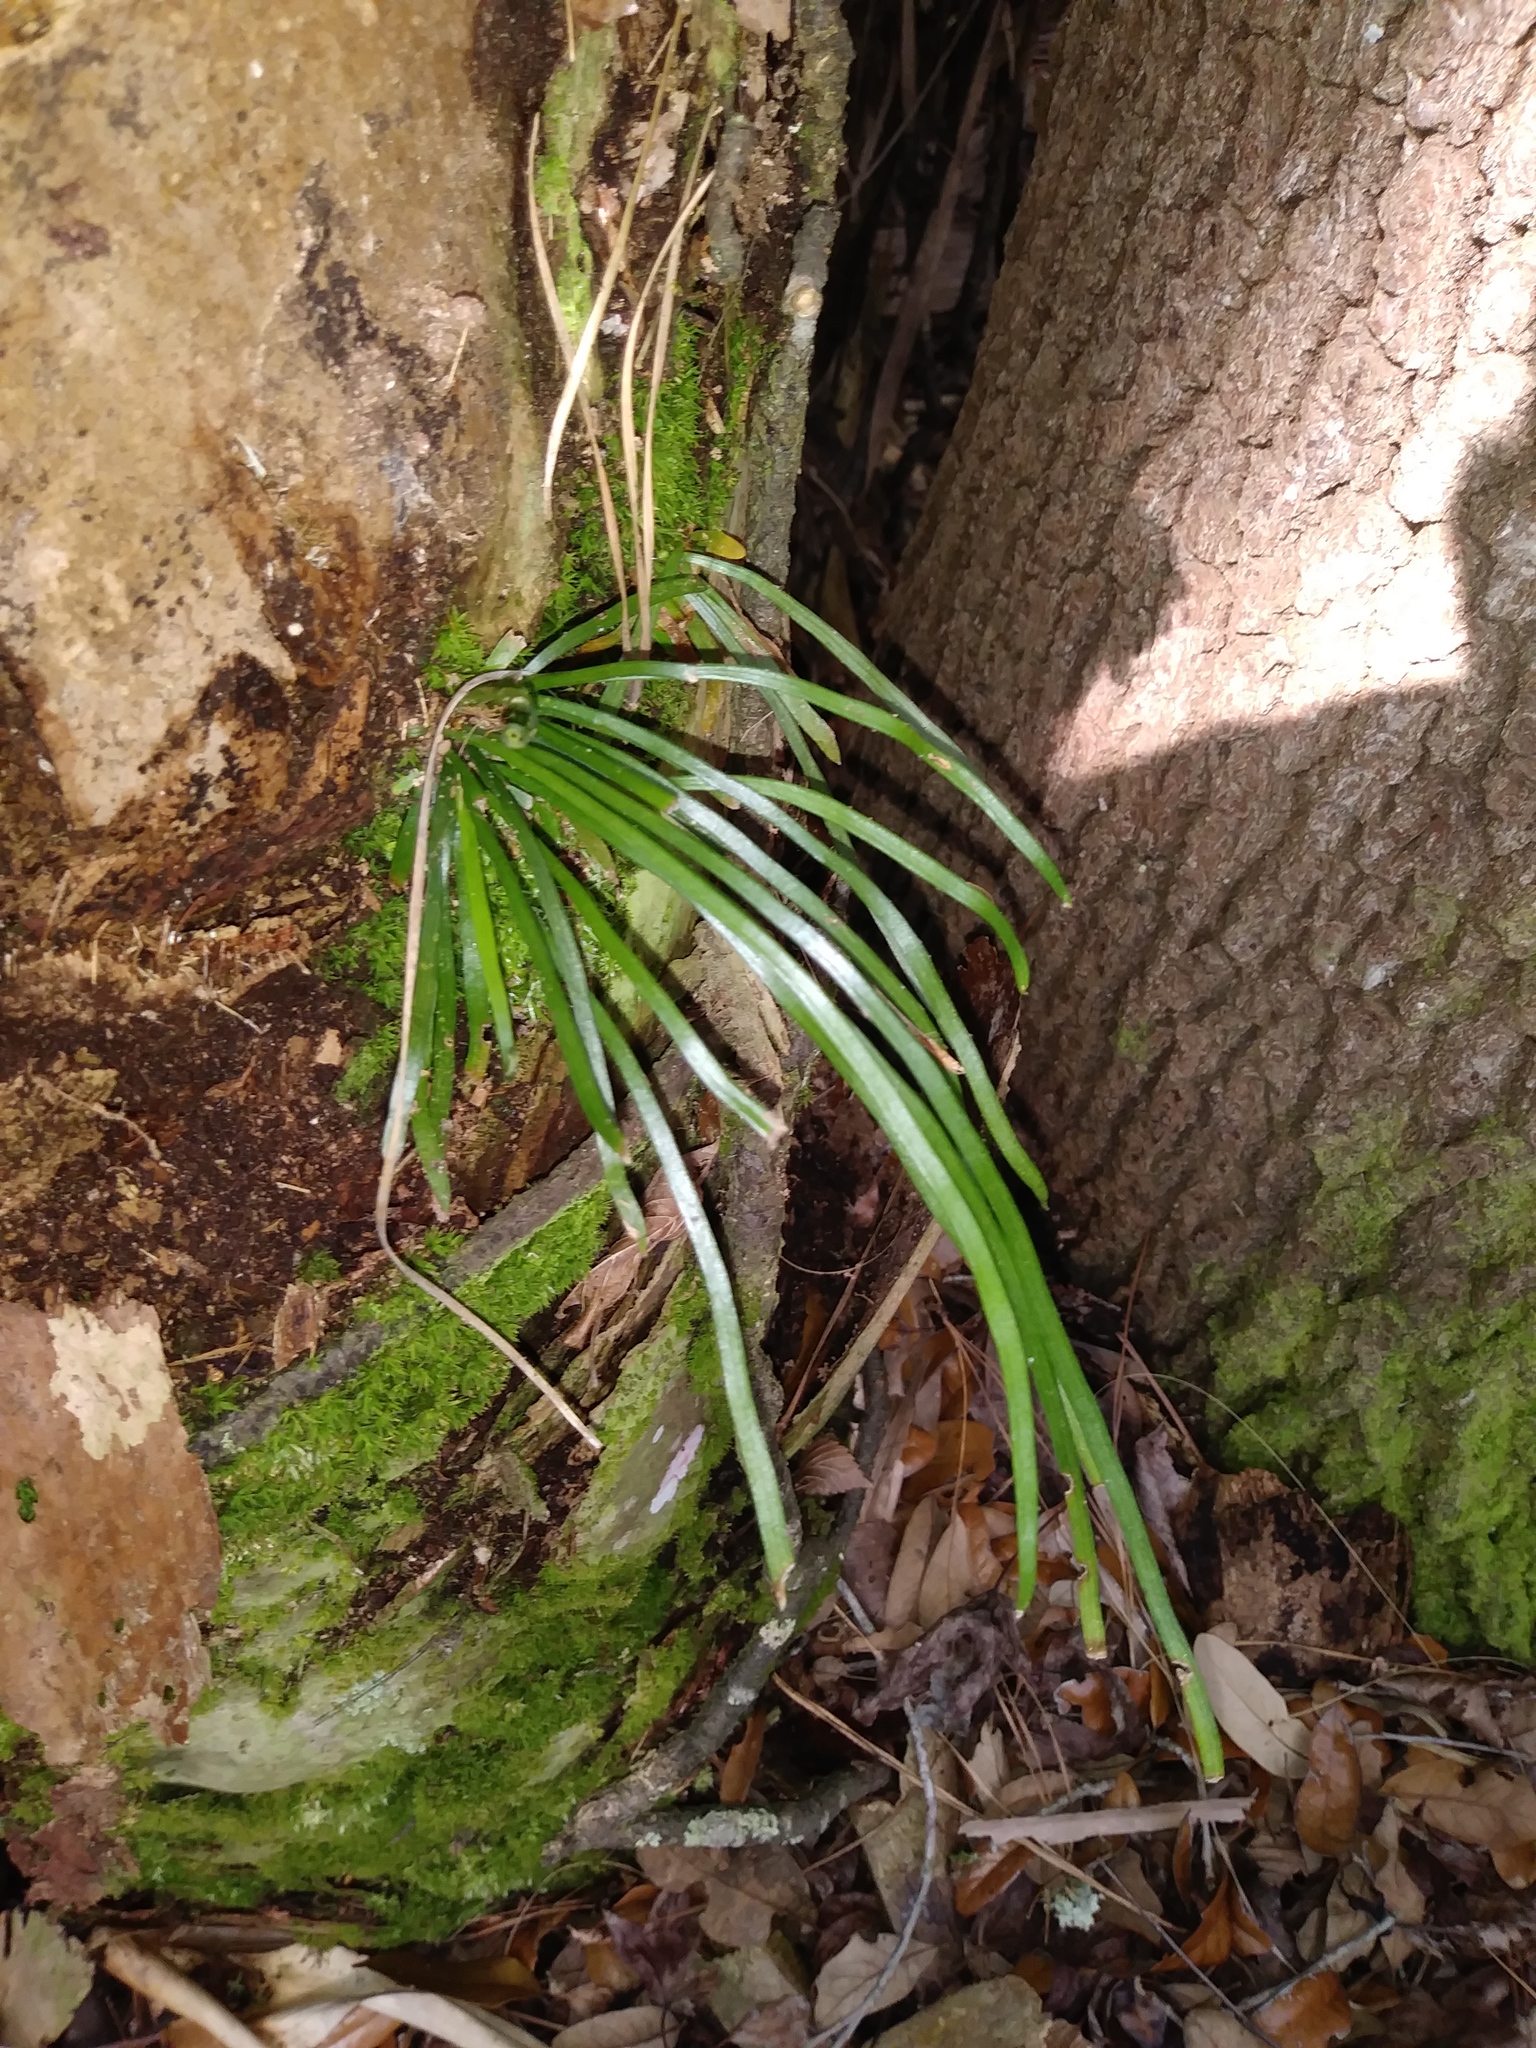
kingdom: Plantae
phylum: Tracheophyta
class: Polypodiopsida
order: Polypodiales
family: Pteridaceae
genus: Vittaria
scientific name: Vittaria lineata
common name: Shoestring fern
